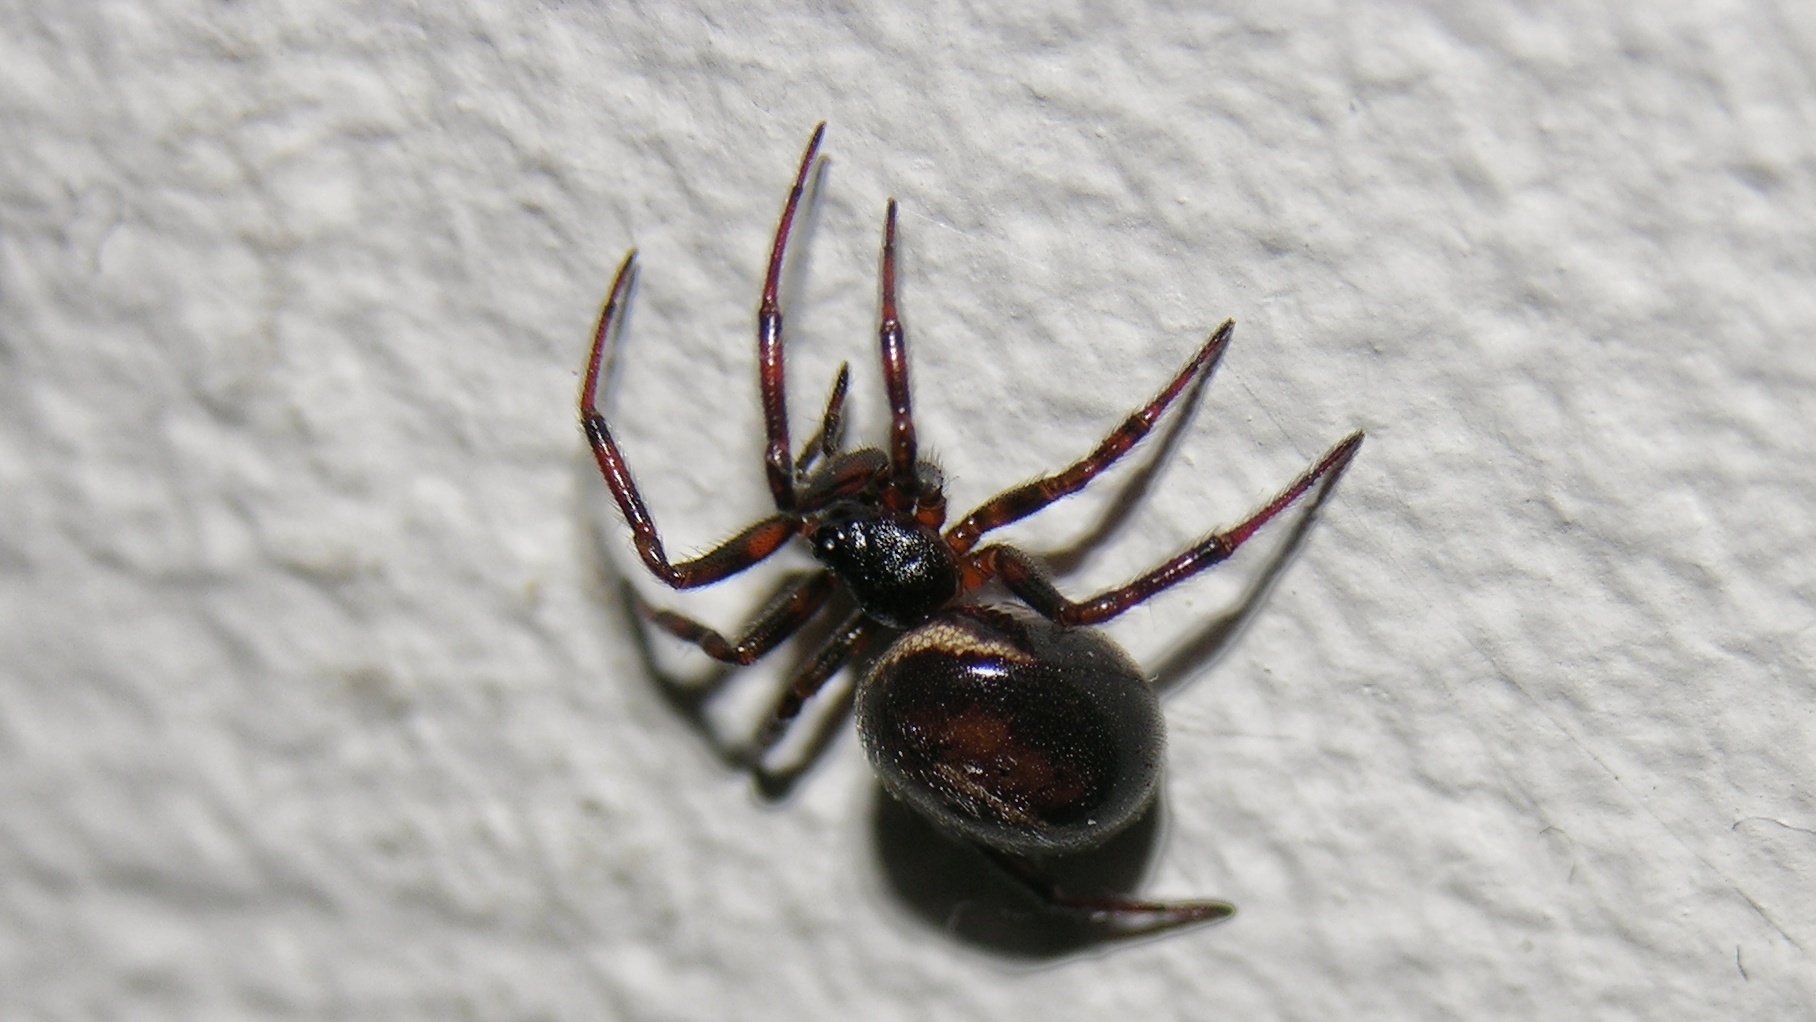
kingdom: Animalia
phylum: Arthropoda
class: Arachnida
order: Araneae
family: Theridiidae
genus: Steatoda
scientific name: Steatoda bipunctata
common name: False widow
